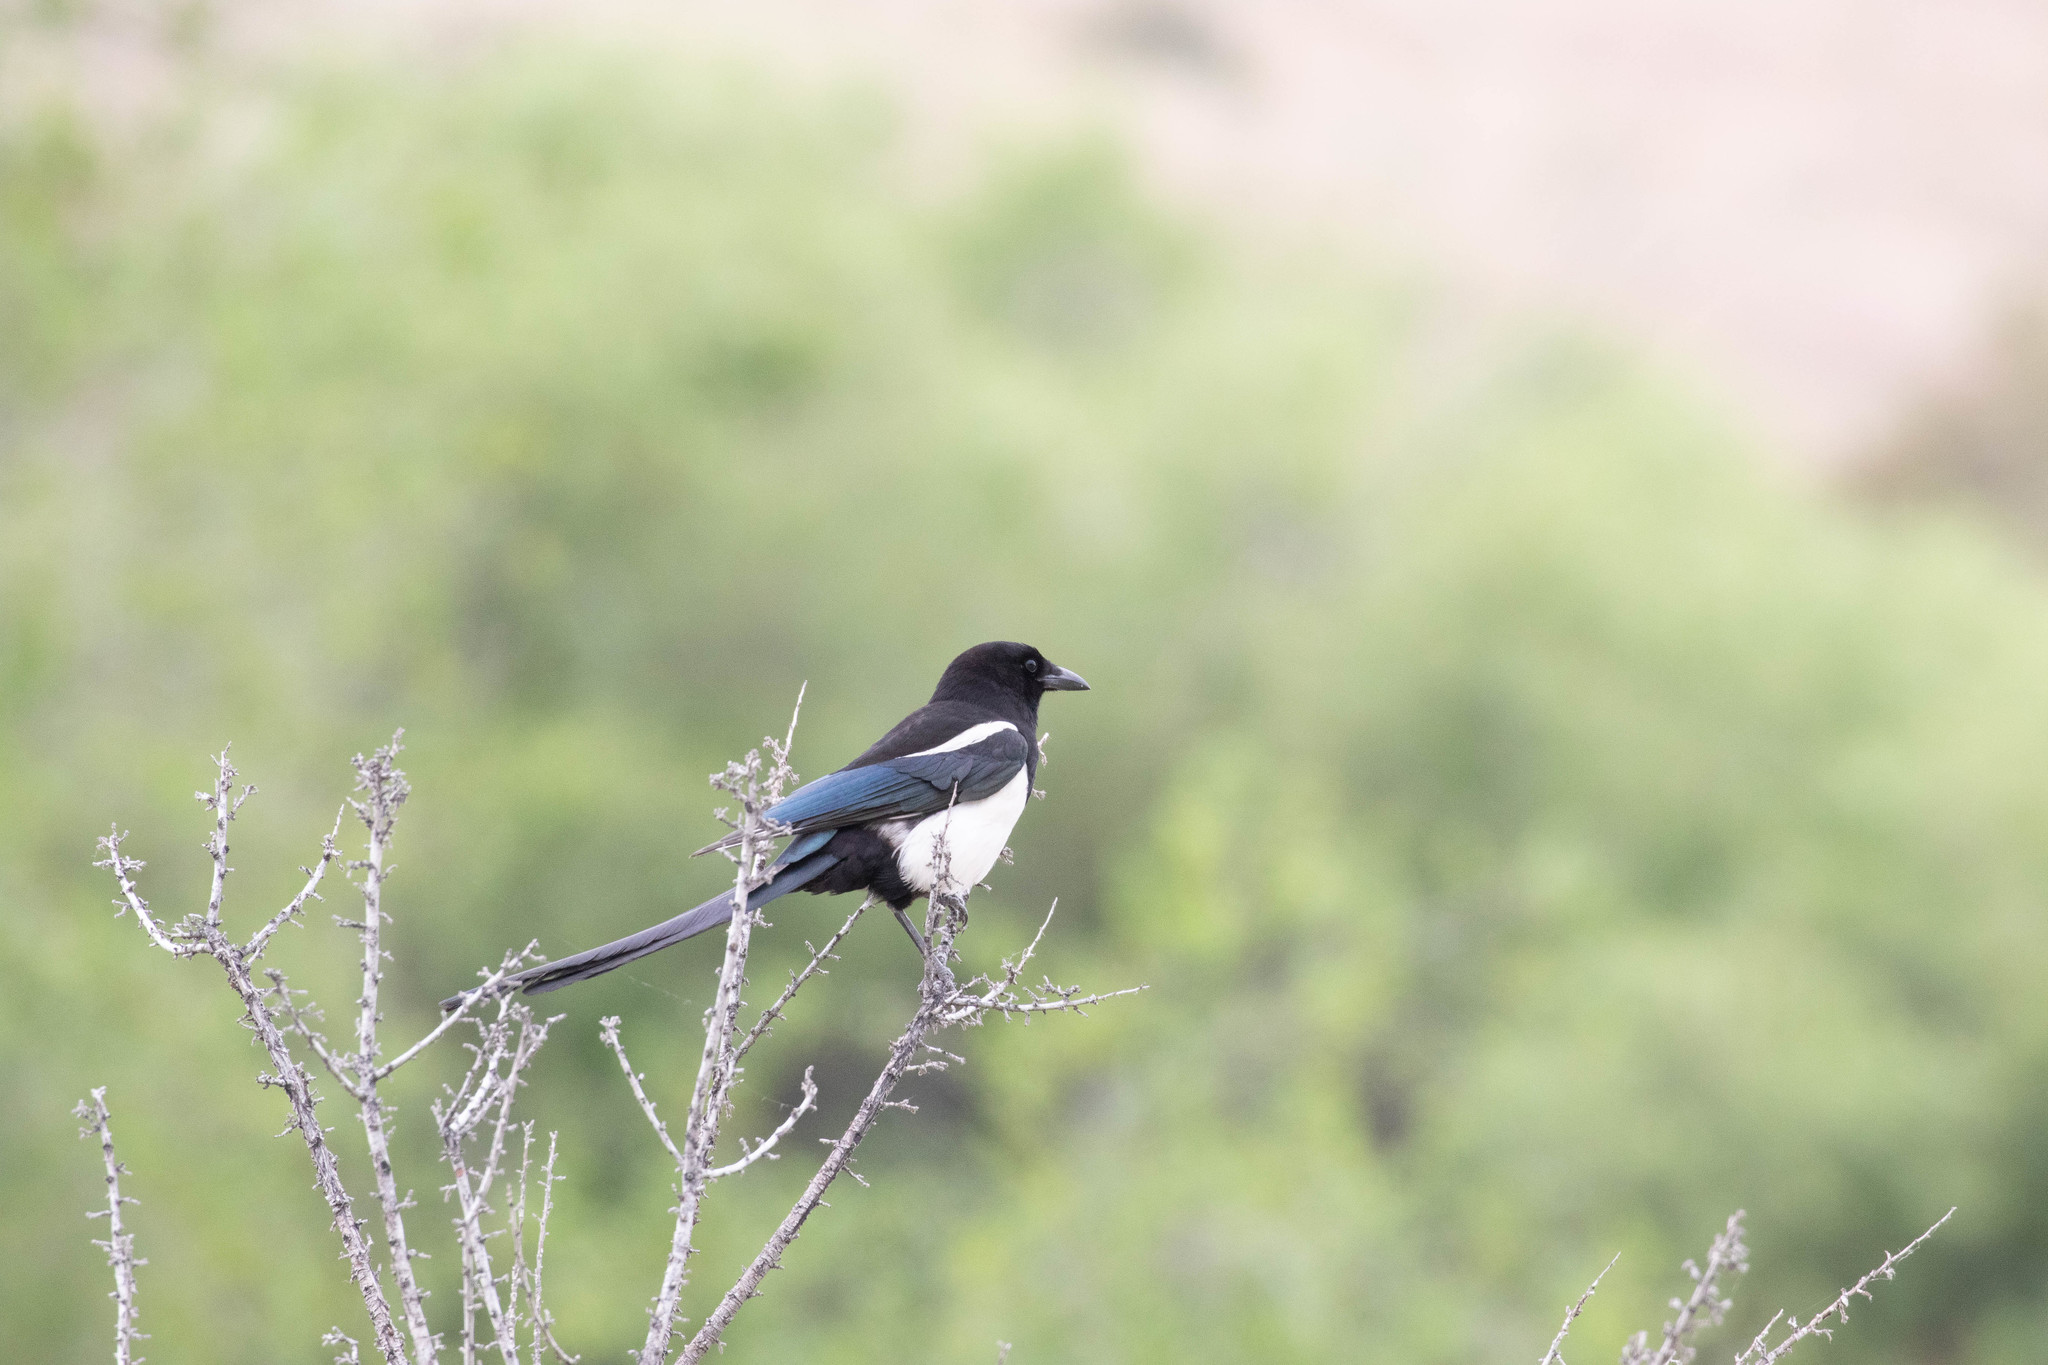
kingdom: Animalia
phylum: Chordata
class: Aves
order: Passeriformes
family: Corvidae
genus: Pica
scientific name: Pica hudsonia
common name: Black-billed magpie
